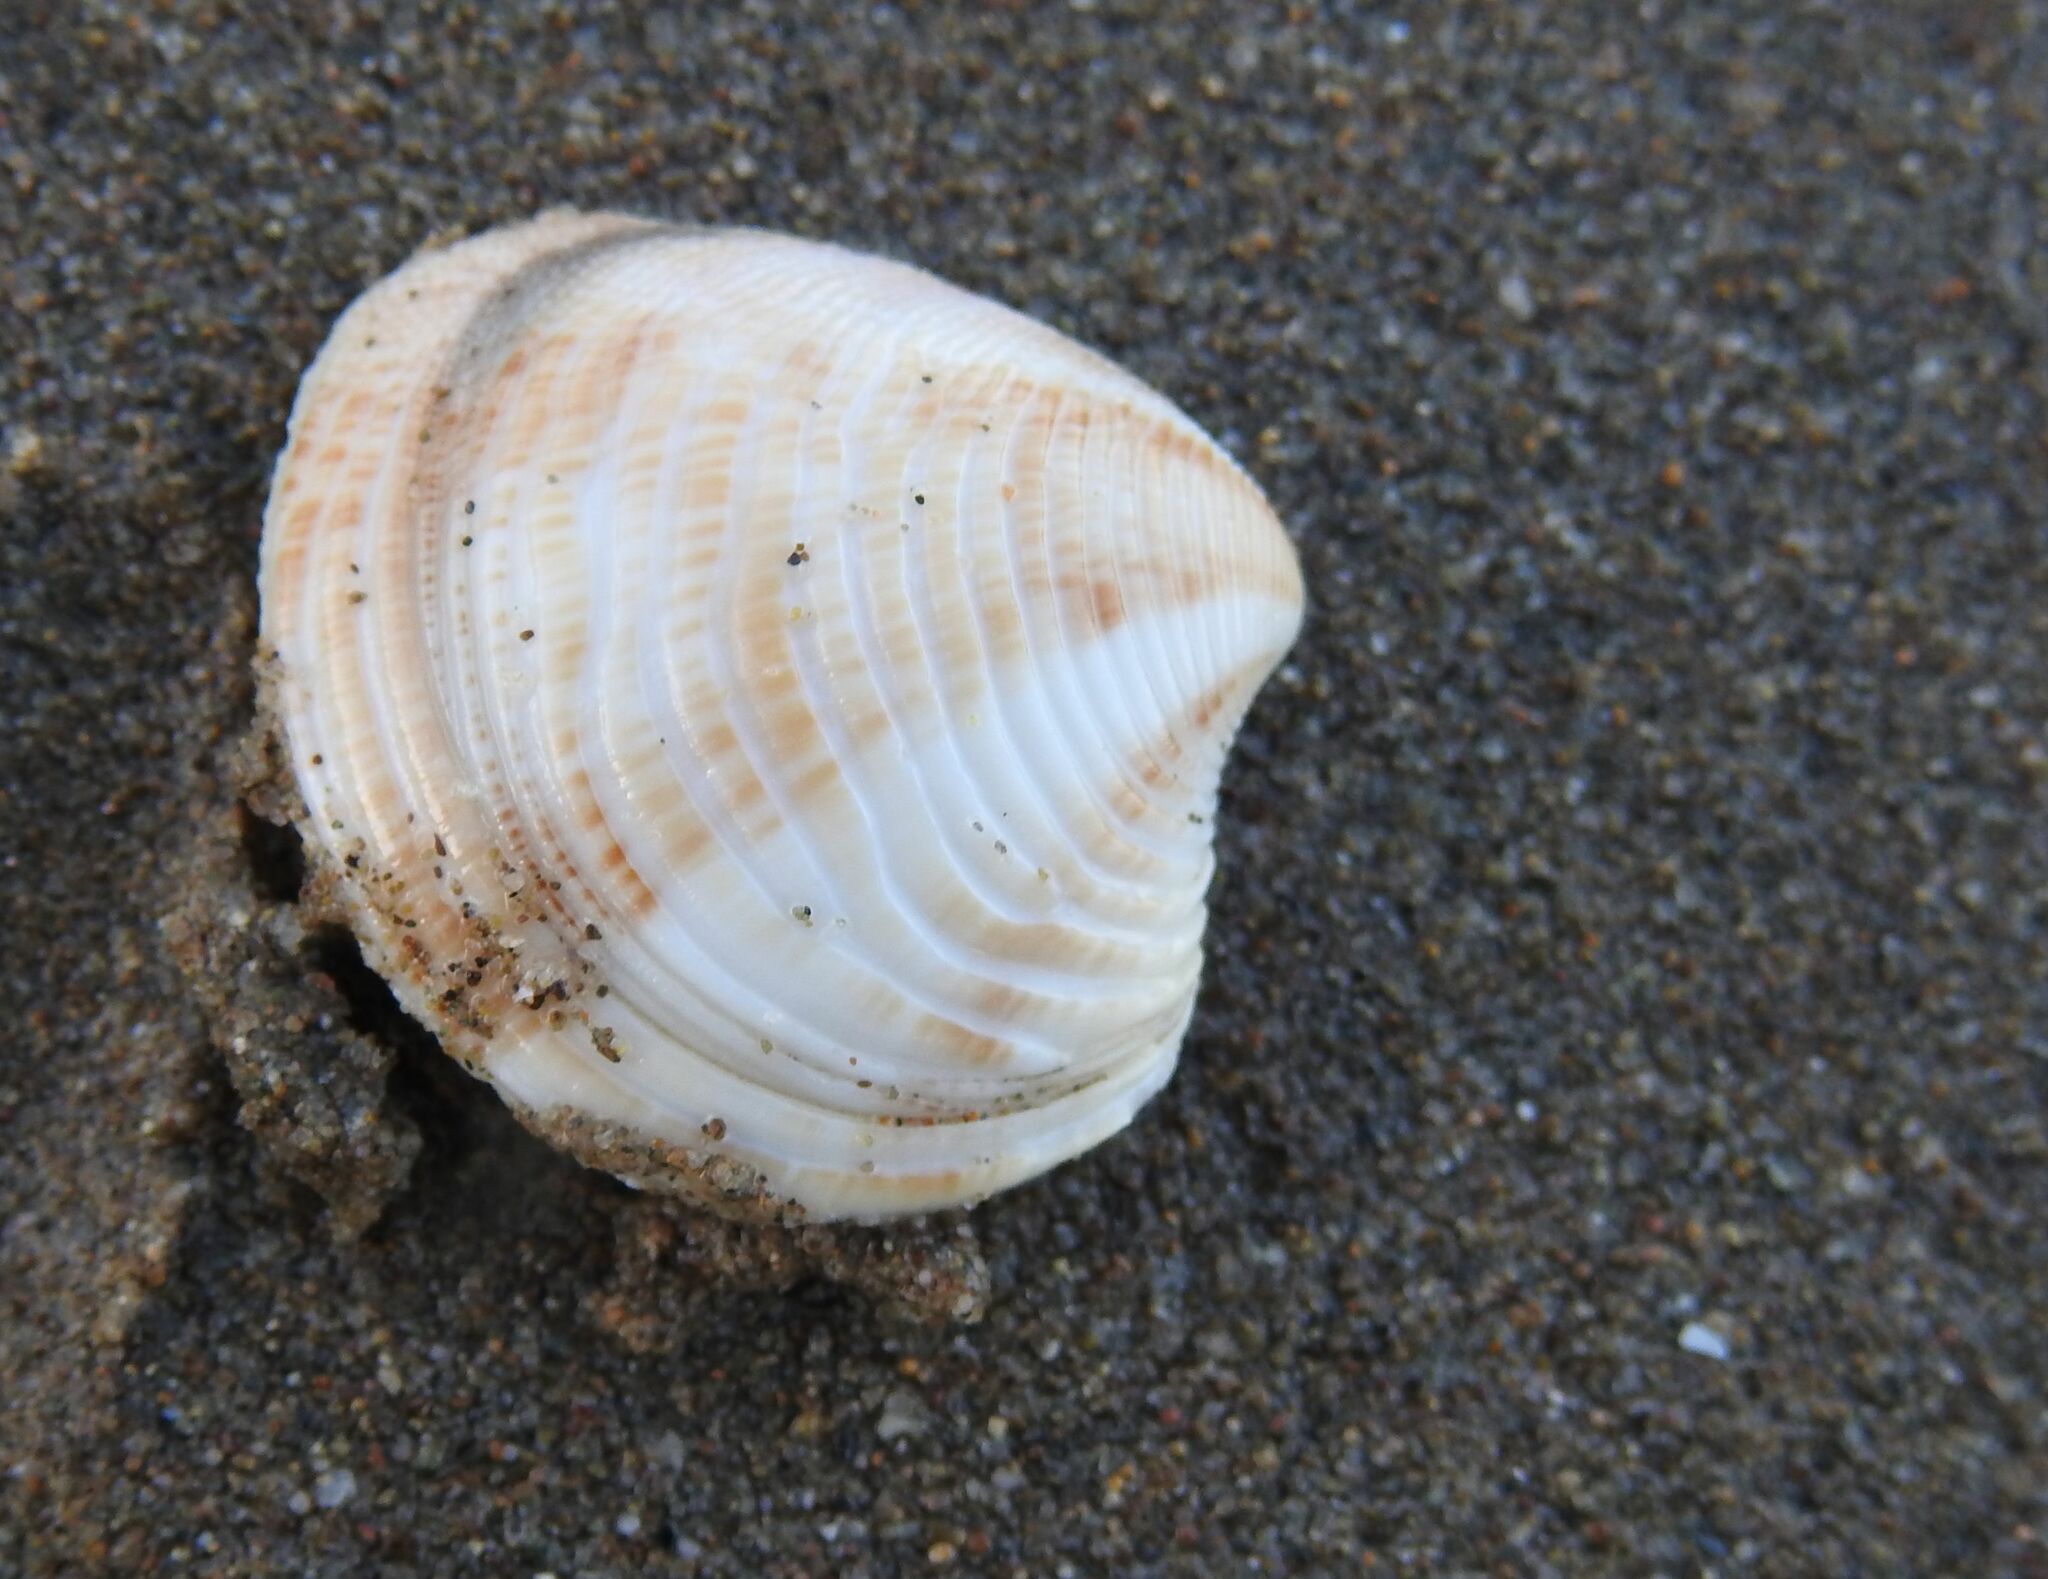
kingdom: Animalia
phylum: Mollusca
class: Bivalvia
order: Venerida
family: Veneridae
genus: Chamelea
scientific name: Chamelea gallina
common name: Chicken venus
